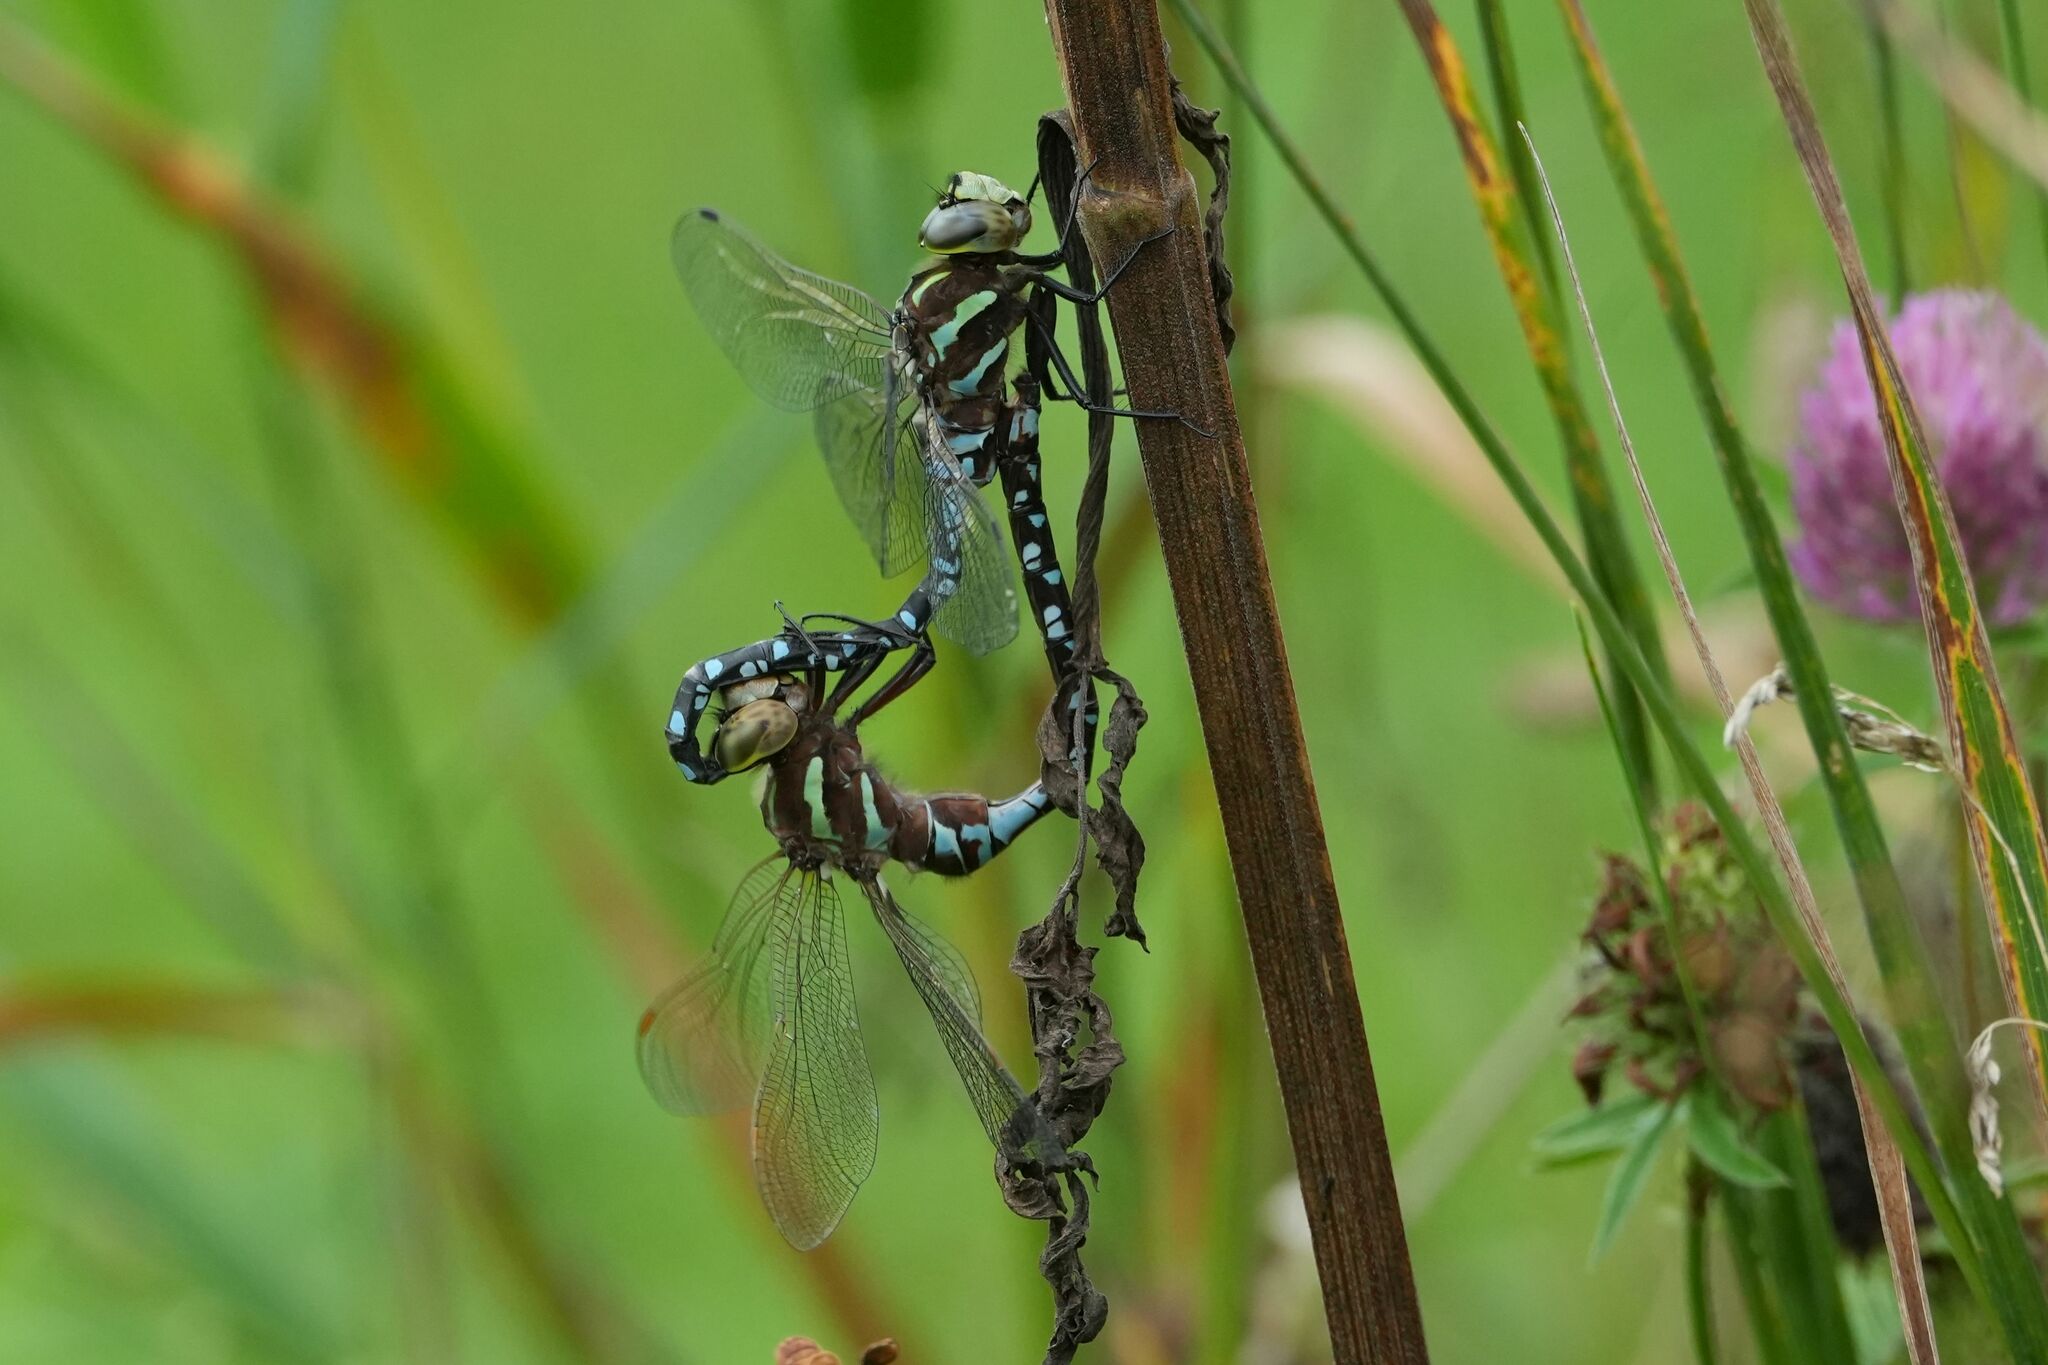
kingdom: Animalia
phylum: Arthropoda
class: Insecta
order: Odonata
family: Aeshnidae
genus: Aeshna
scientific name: Aeshna constricta
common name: Lance-tipped darner
